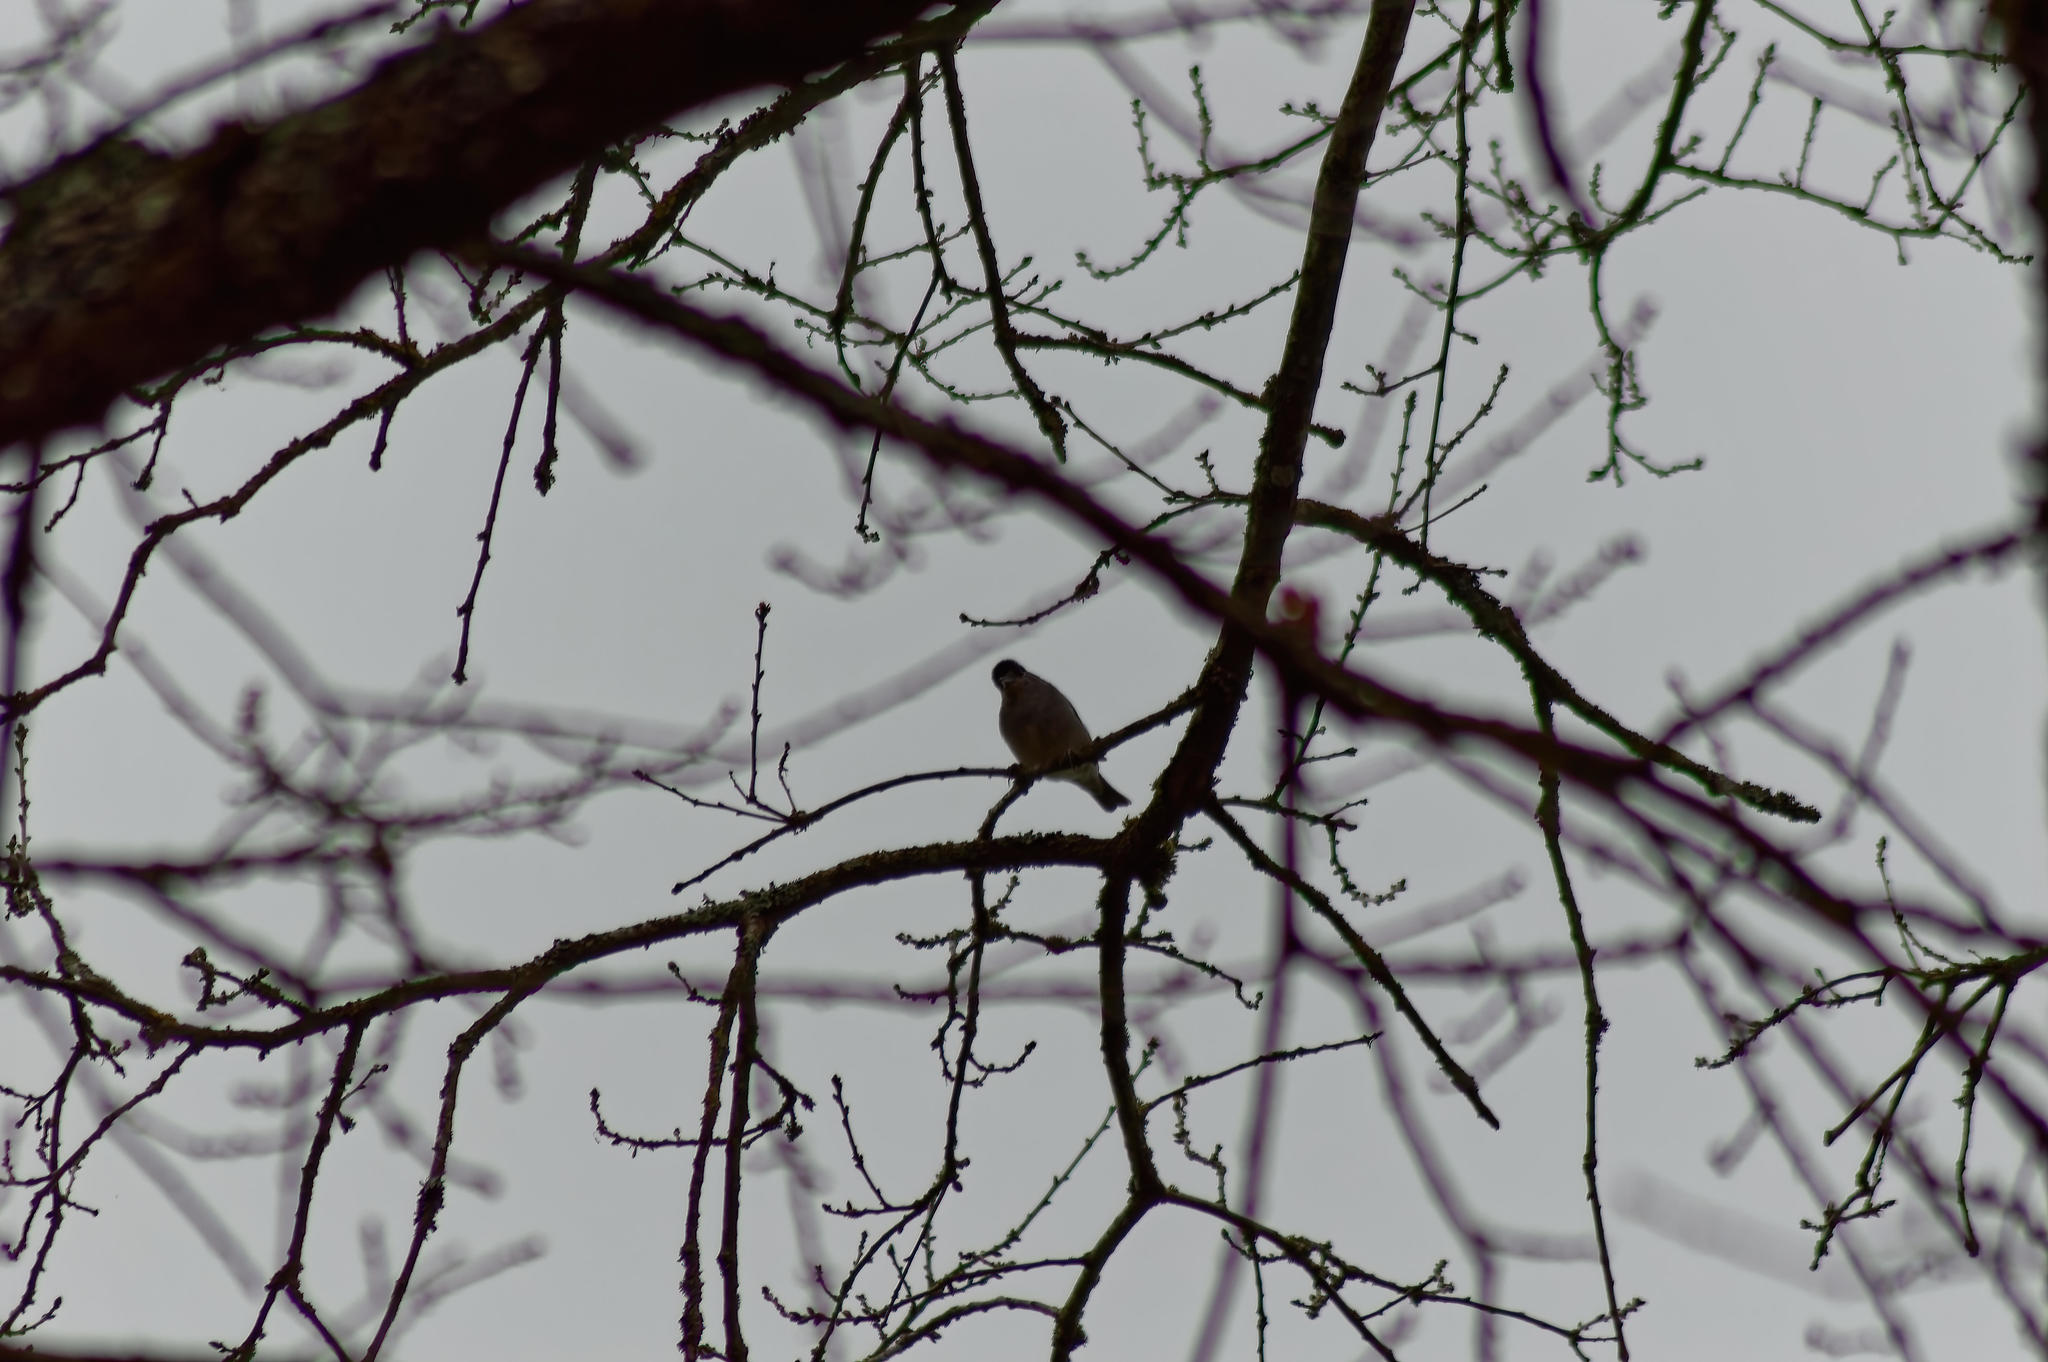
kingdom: Animalia
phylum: Chordata
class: Aves
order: Passeriformes
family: Sylviidae
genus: Sylvia
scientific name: Sylvia atricapilla
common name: Eurasian blackcap
